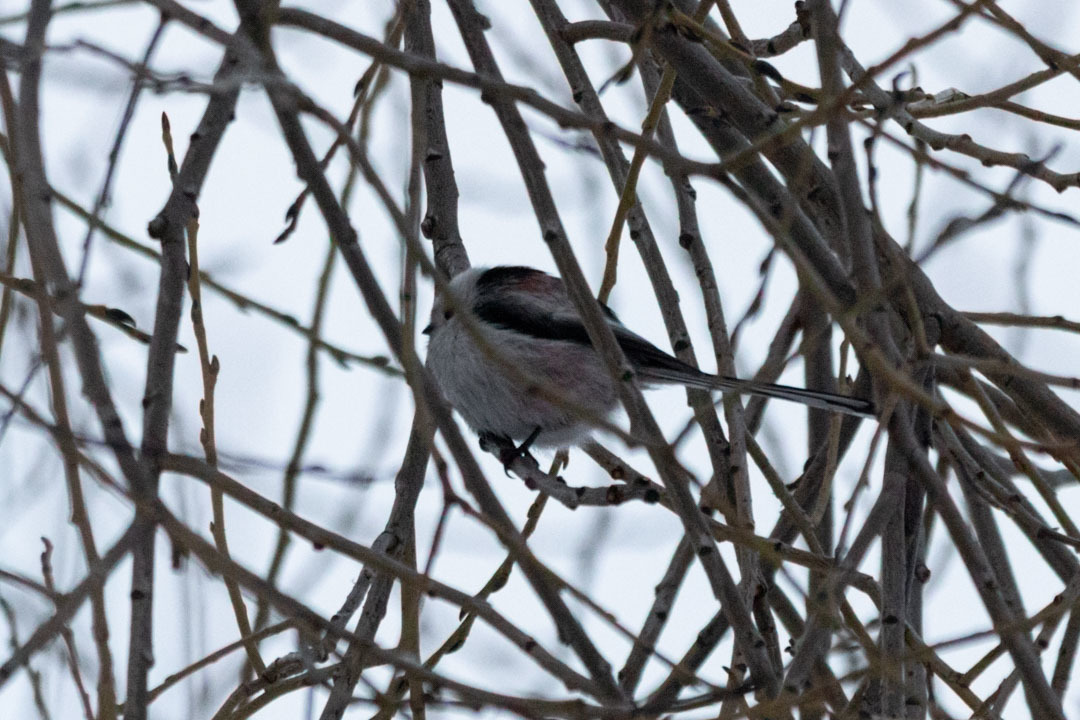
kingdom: Animalia
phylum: Chordata
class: Aves
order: Passeriformes
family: Aegithalidae
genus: Aegithalos
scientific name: Aegithalos caudatus
